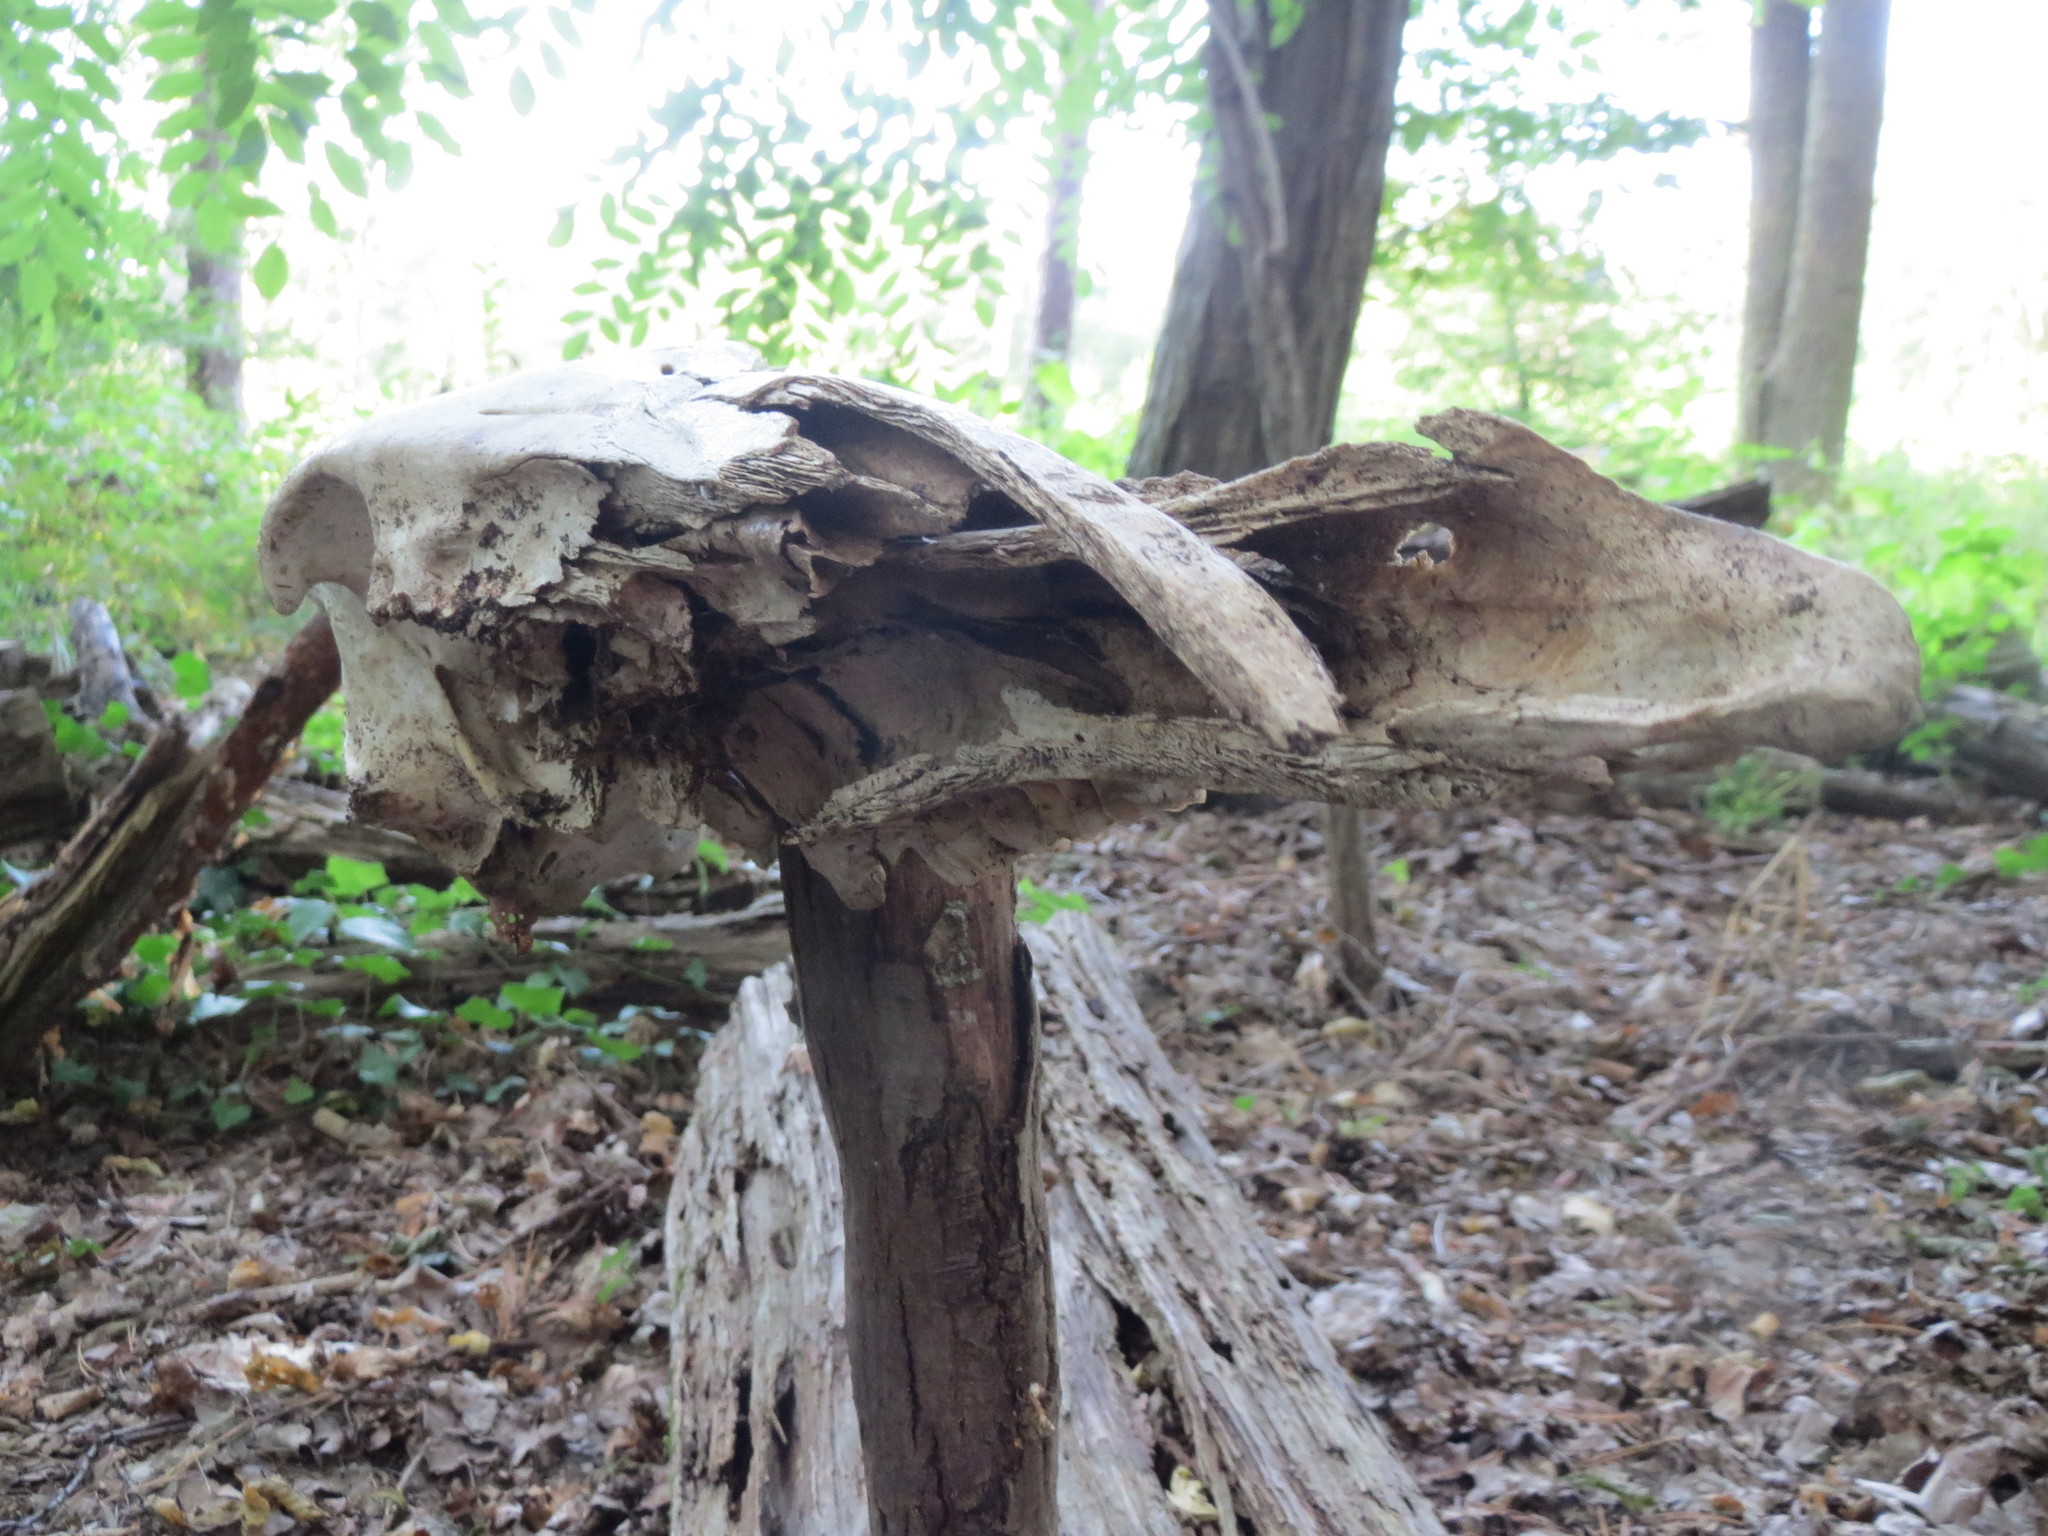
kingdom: Animalia
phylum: Chordata
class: Mammalia
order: Artiodactyla
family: Suidae
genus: Sus
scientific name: Sus scrofa
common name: Wild boar
